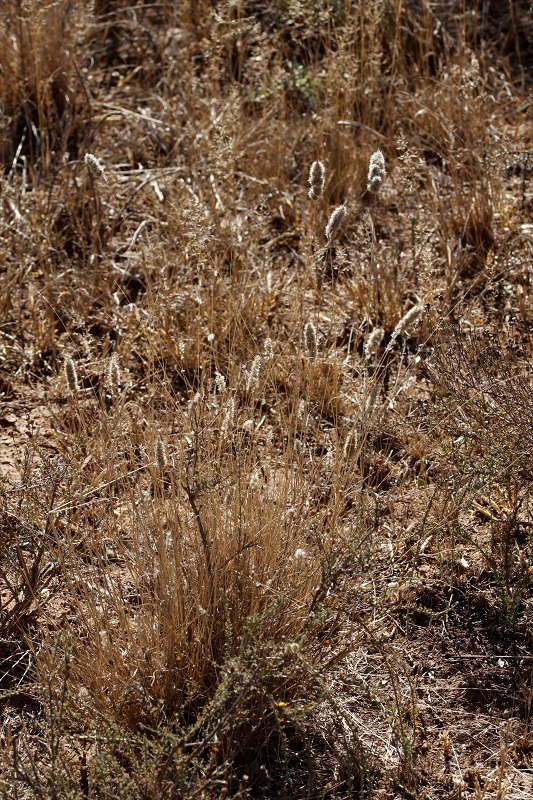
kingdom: Plantae
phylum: Tracheophyta
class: Liliopsida
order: Poales
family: Poaceae
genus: Fingerhuthia
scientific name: Fingerhuthia africana
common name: Zulu fescue
